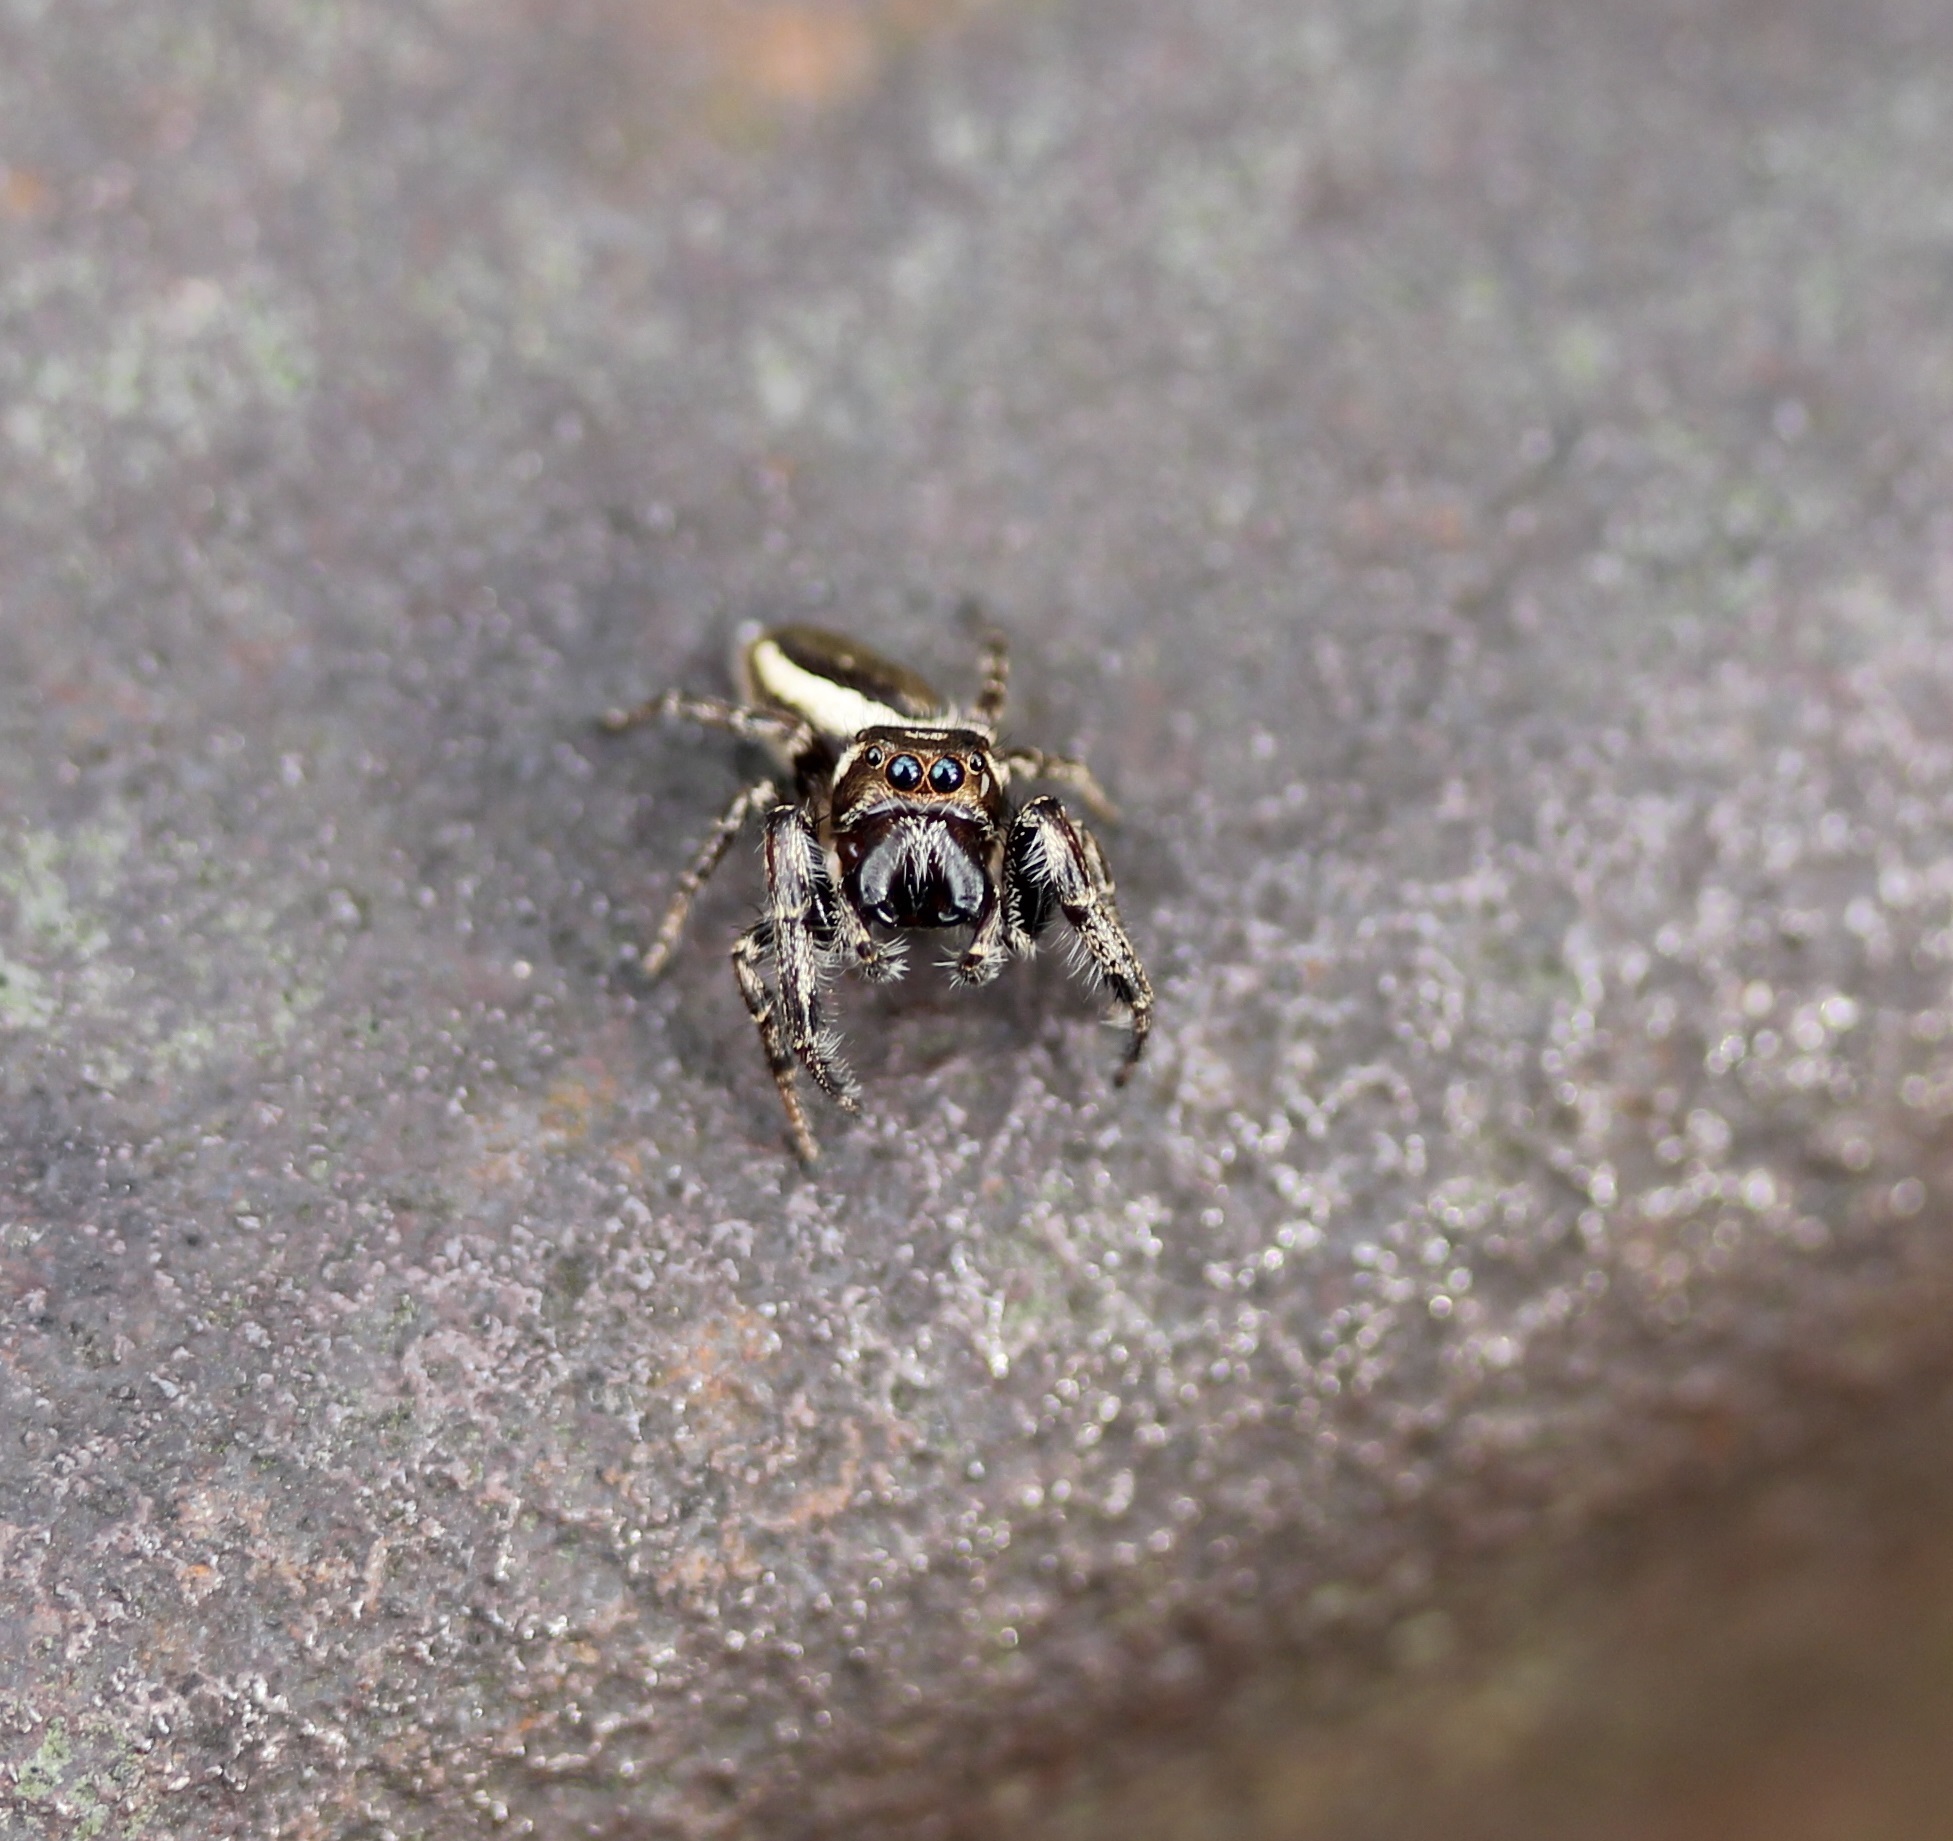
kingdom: Animalia
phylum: Arthropoda
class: Arachnida
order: Araneae
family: Salticidae
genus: Eris
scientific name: Eris militaris
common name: Bronze jumper
